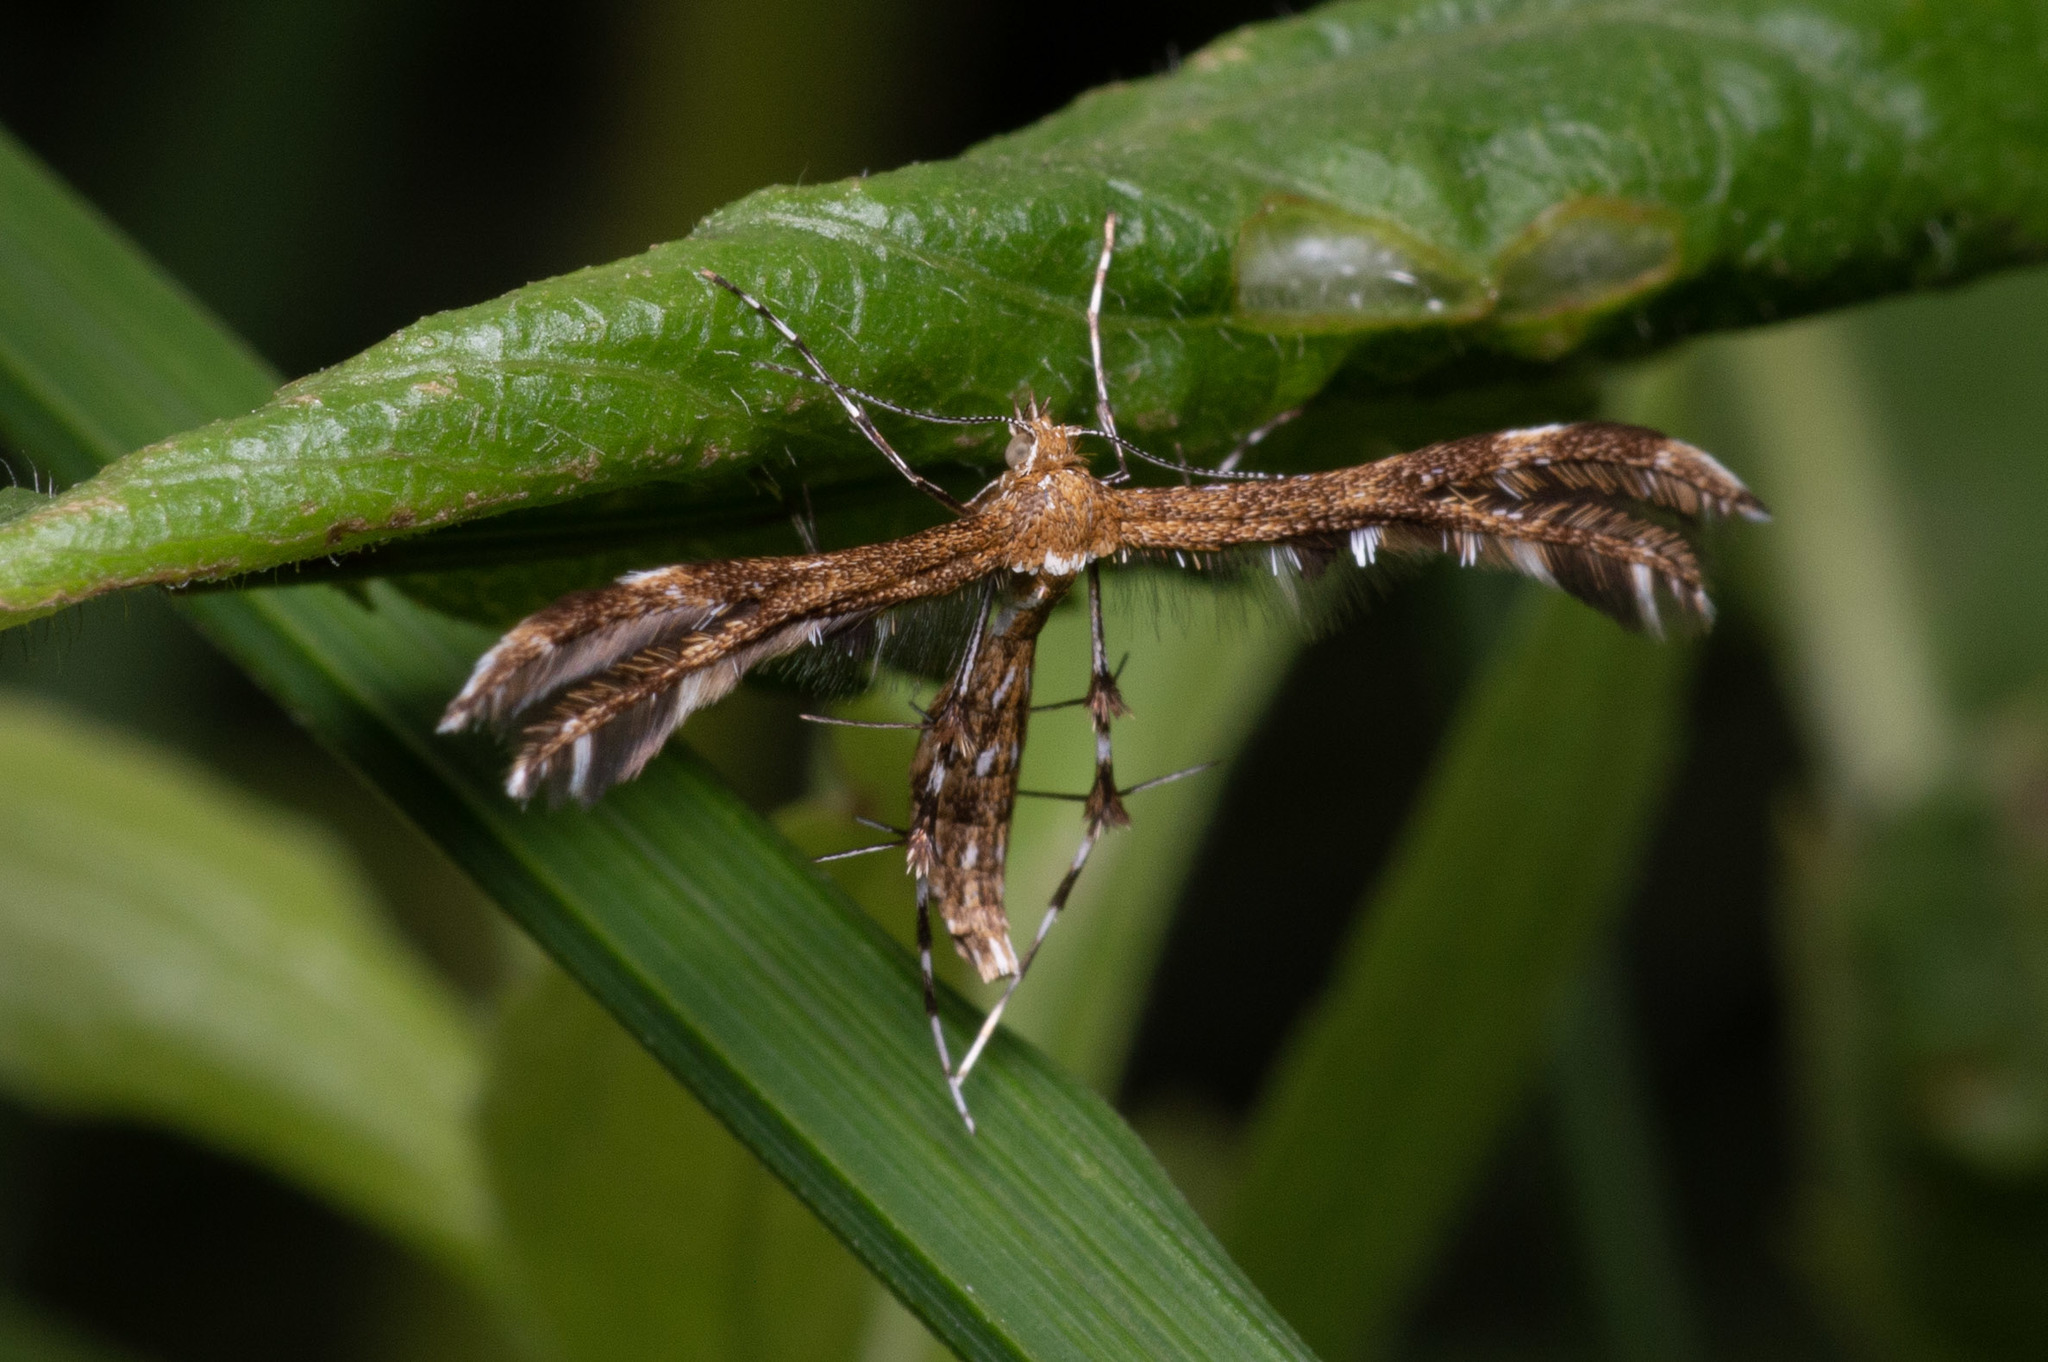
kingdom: Animalia
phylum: Arthropoda
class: Insecta
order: Lepidoptera
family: Pterophoridae
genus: Dejongia
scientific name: Dejongia lobidactylus
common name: Lobed plume moth
